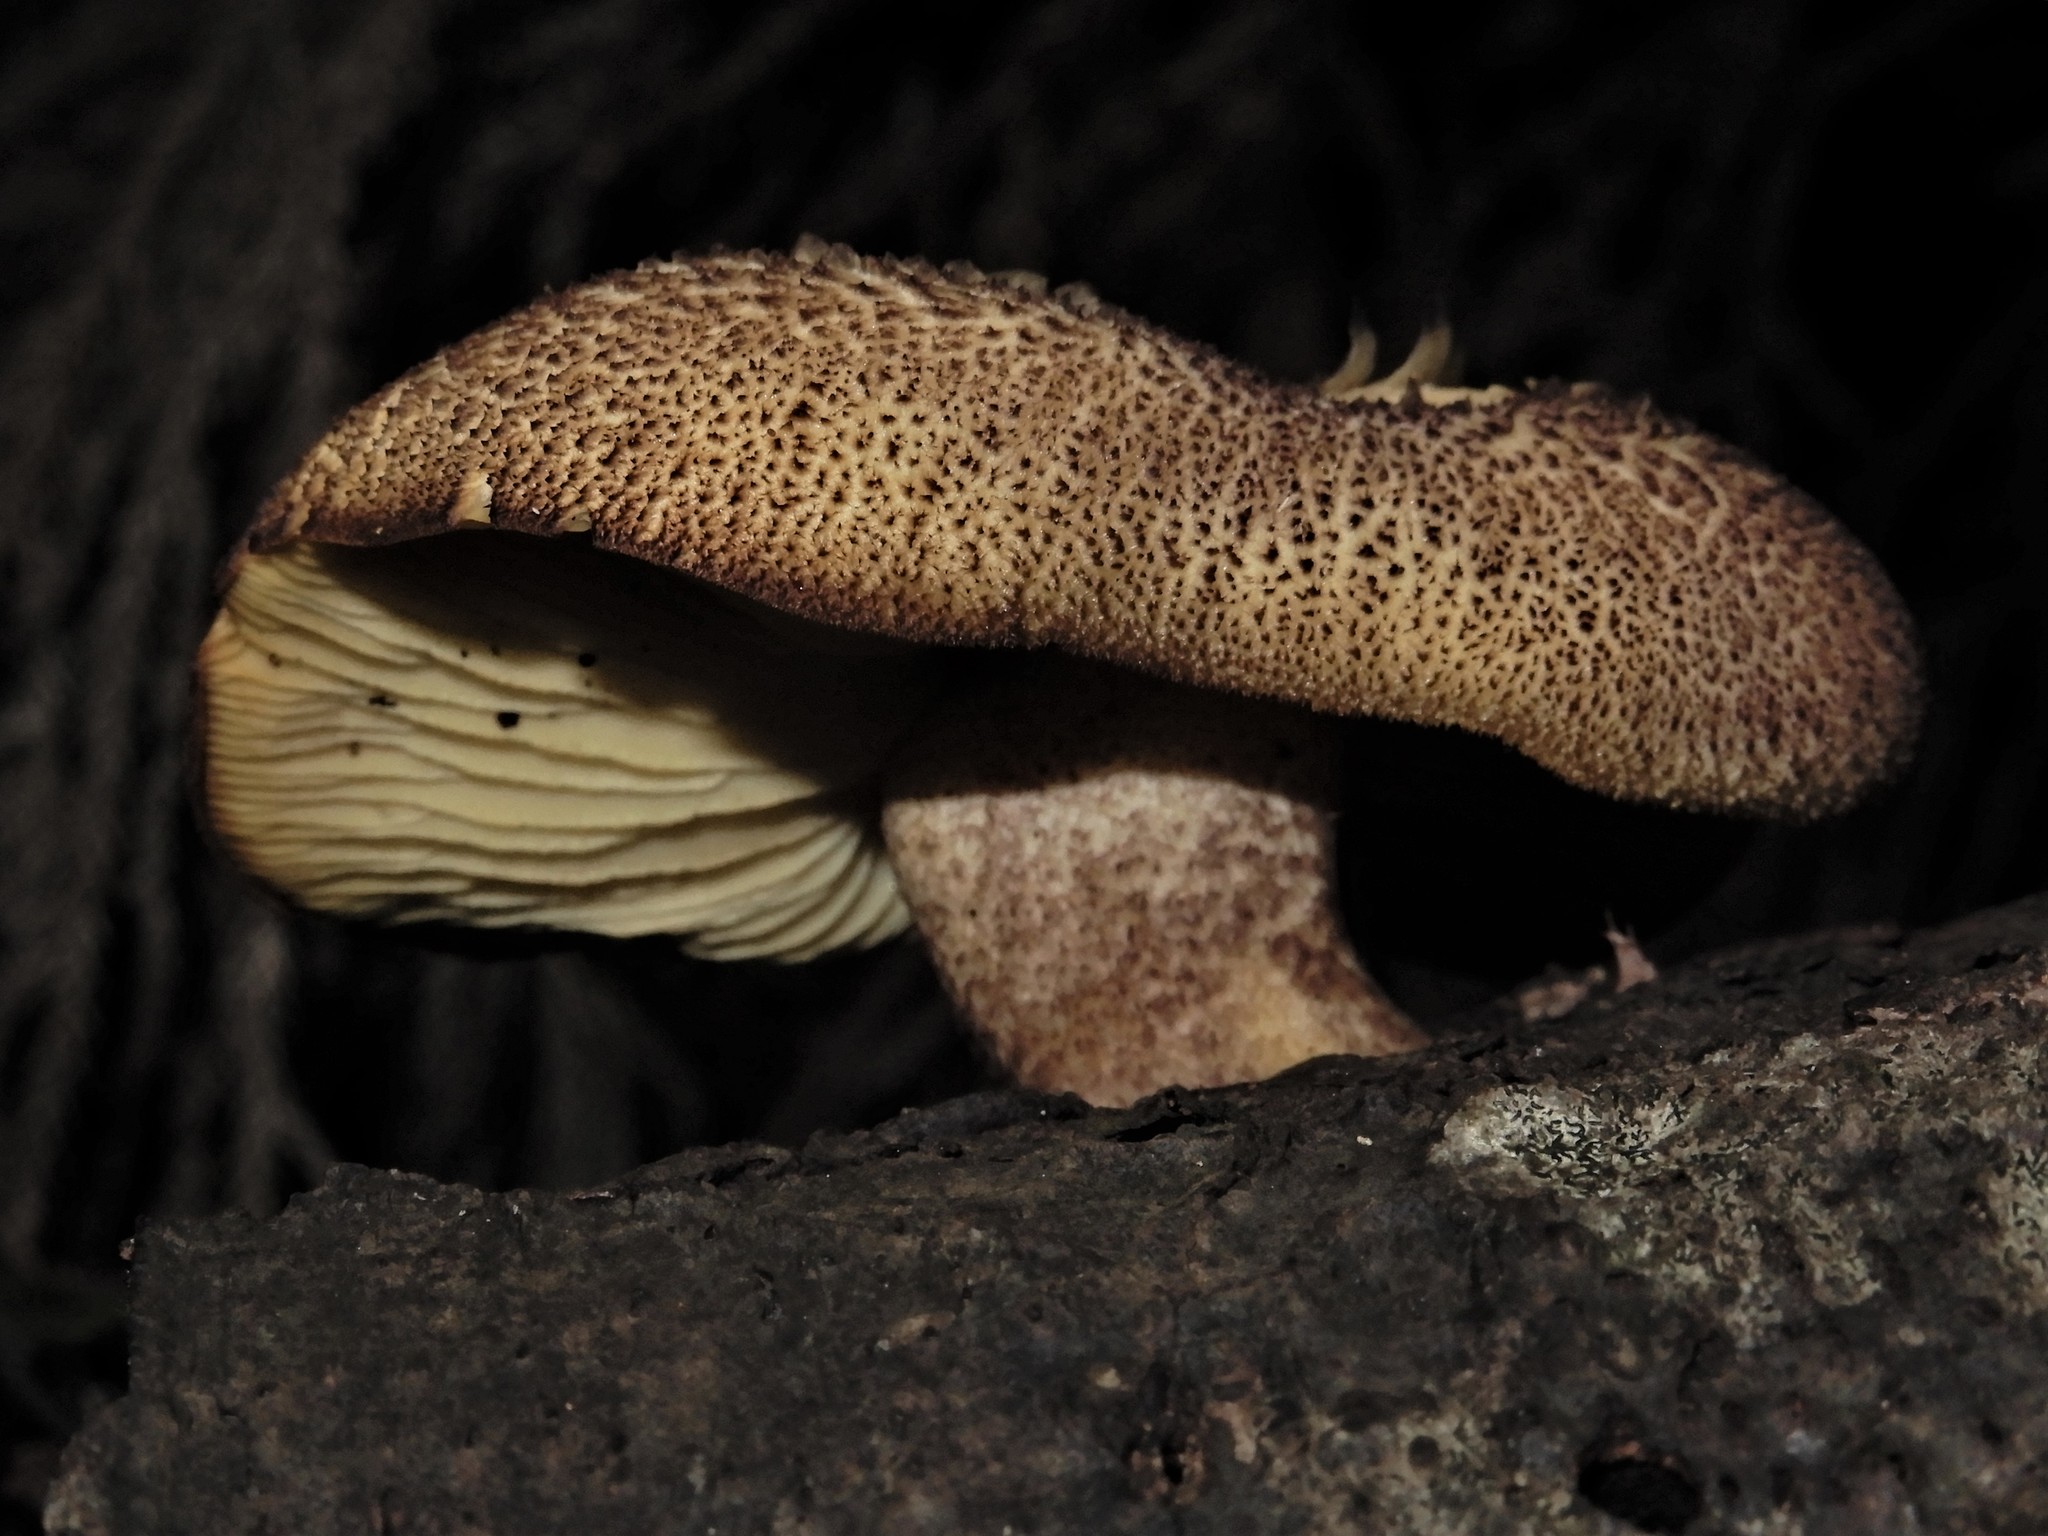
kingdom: Fungi
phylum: Basidiomycota
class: Agaricomycetes
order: Agaricales
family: Tricholomataceae
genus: Tricholomopsis
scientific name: Tricholomopsis ornaticeps
